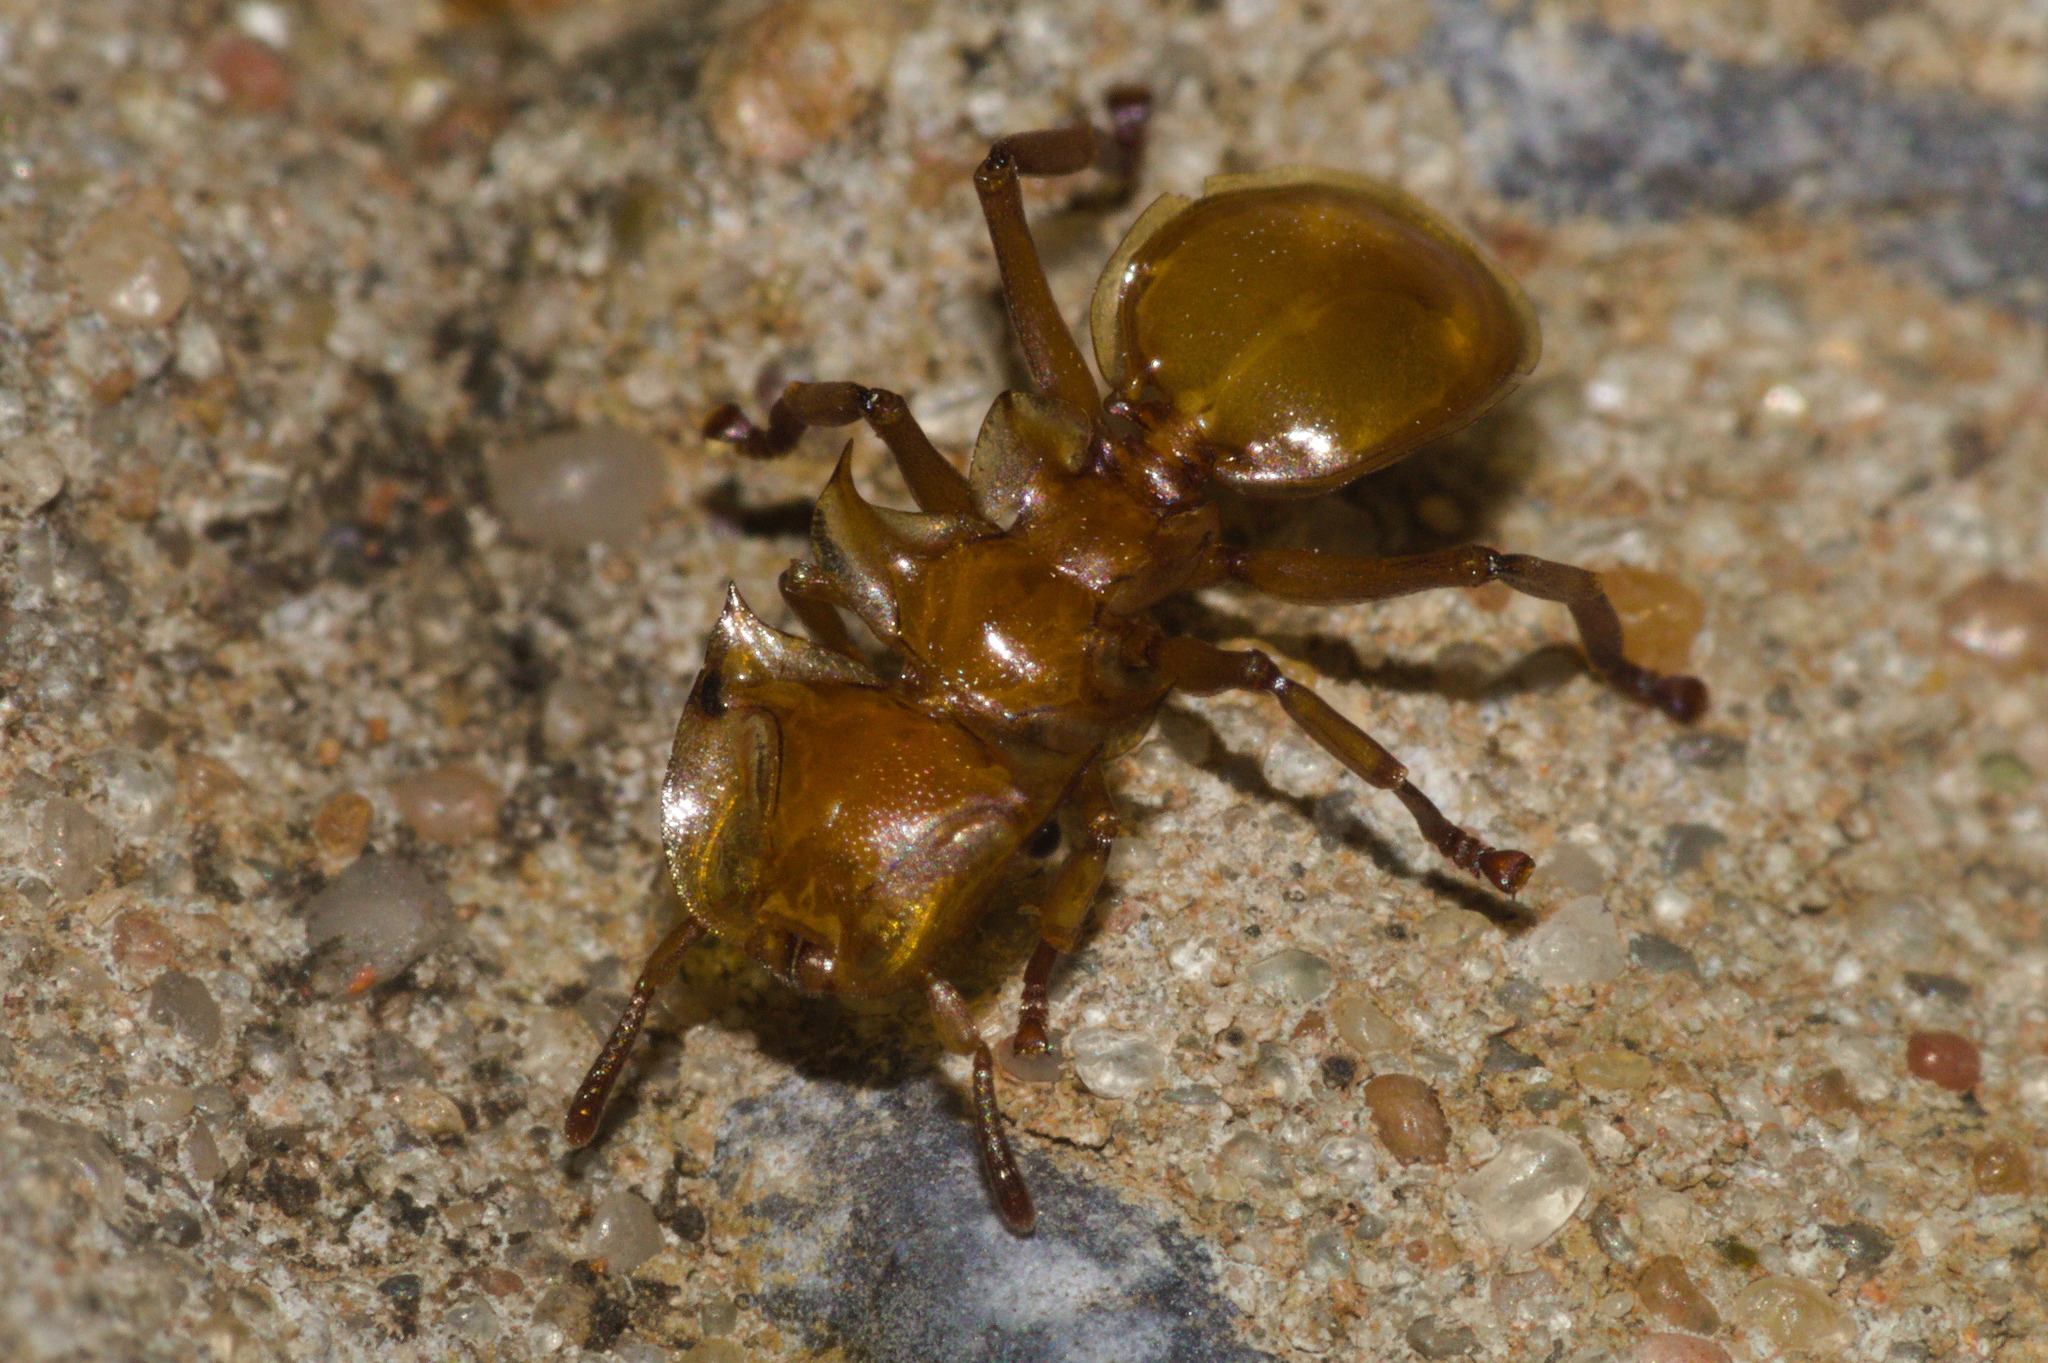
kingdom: Animalia
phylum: Arthropoda
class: Insecta
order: Hymenoptera
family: Formicidae
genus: Cephalotes
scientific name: Cephalotes clypeatus
